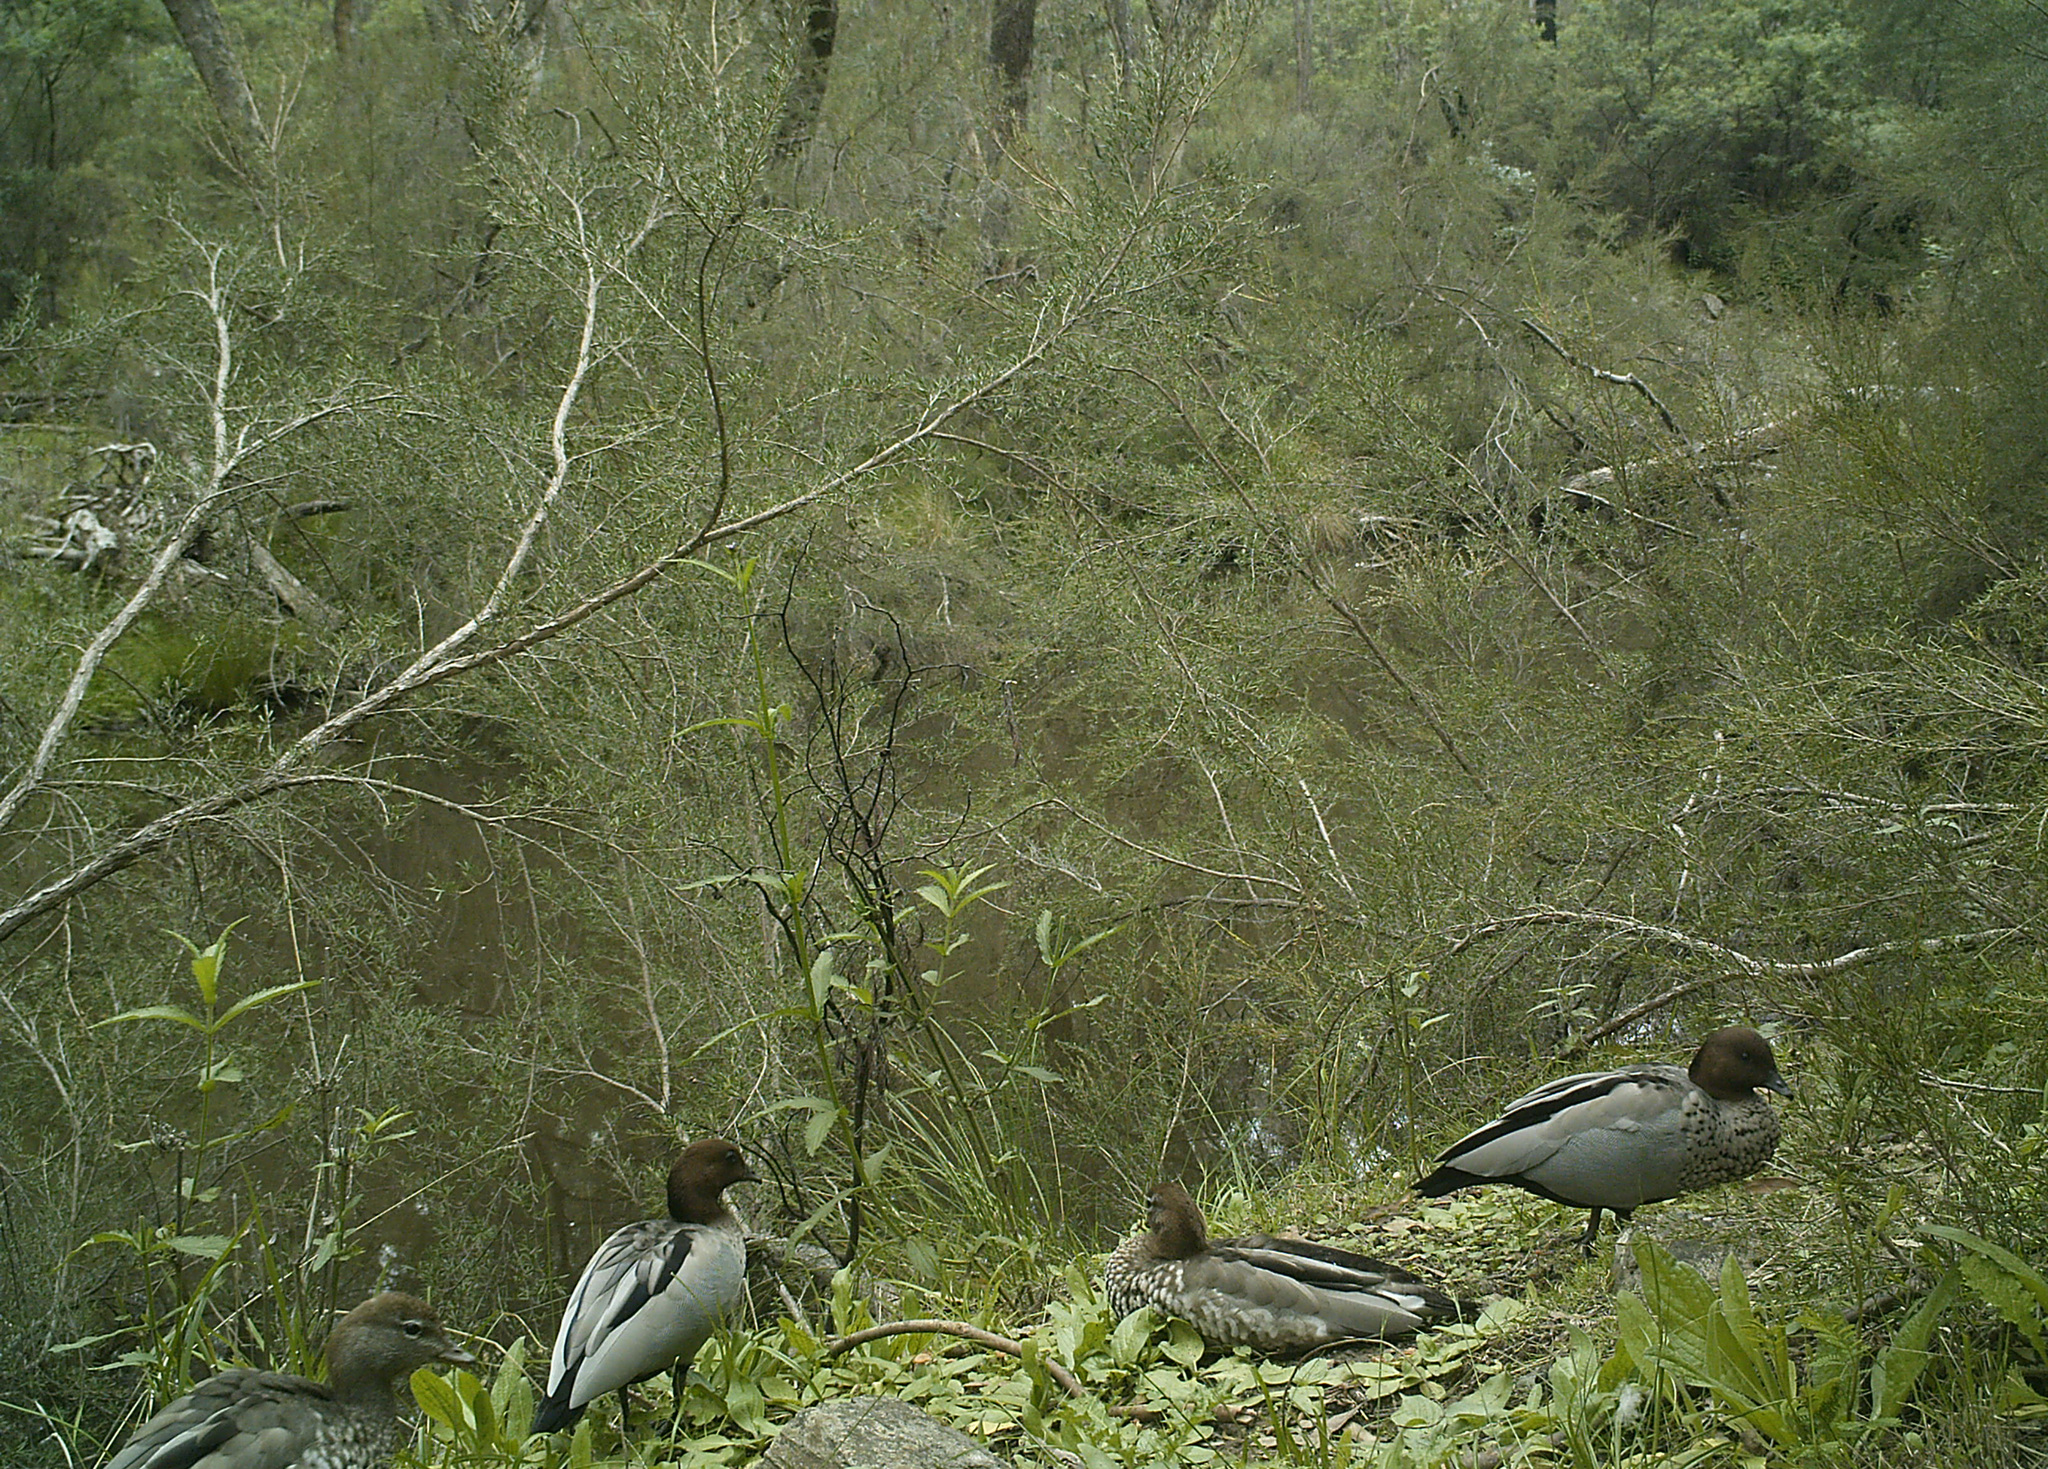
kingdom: Animalia
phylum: Chordata
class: Aves
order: Anseriformes
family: Anatidae
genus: Chenonetta
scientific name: Chenonetta jubata
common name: Maned duck
